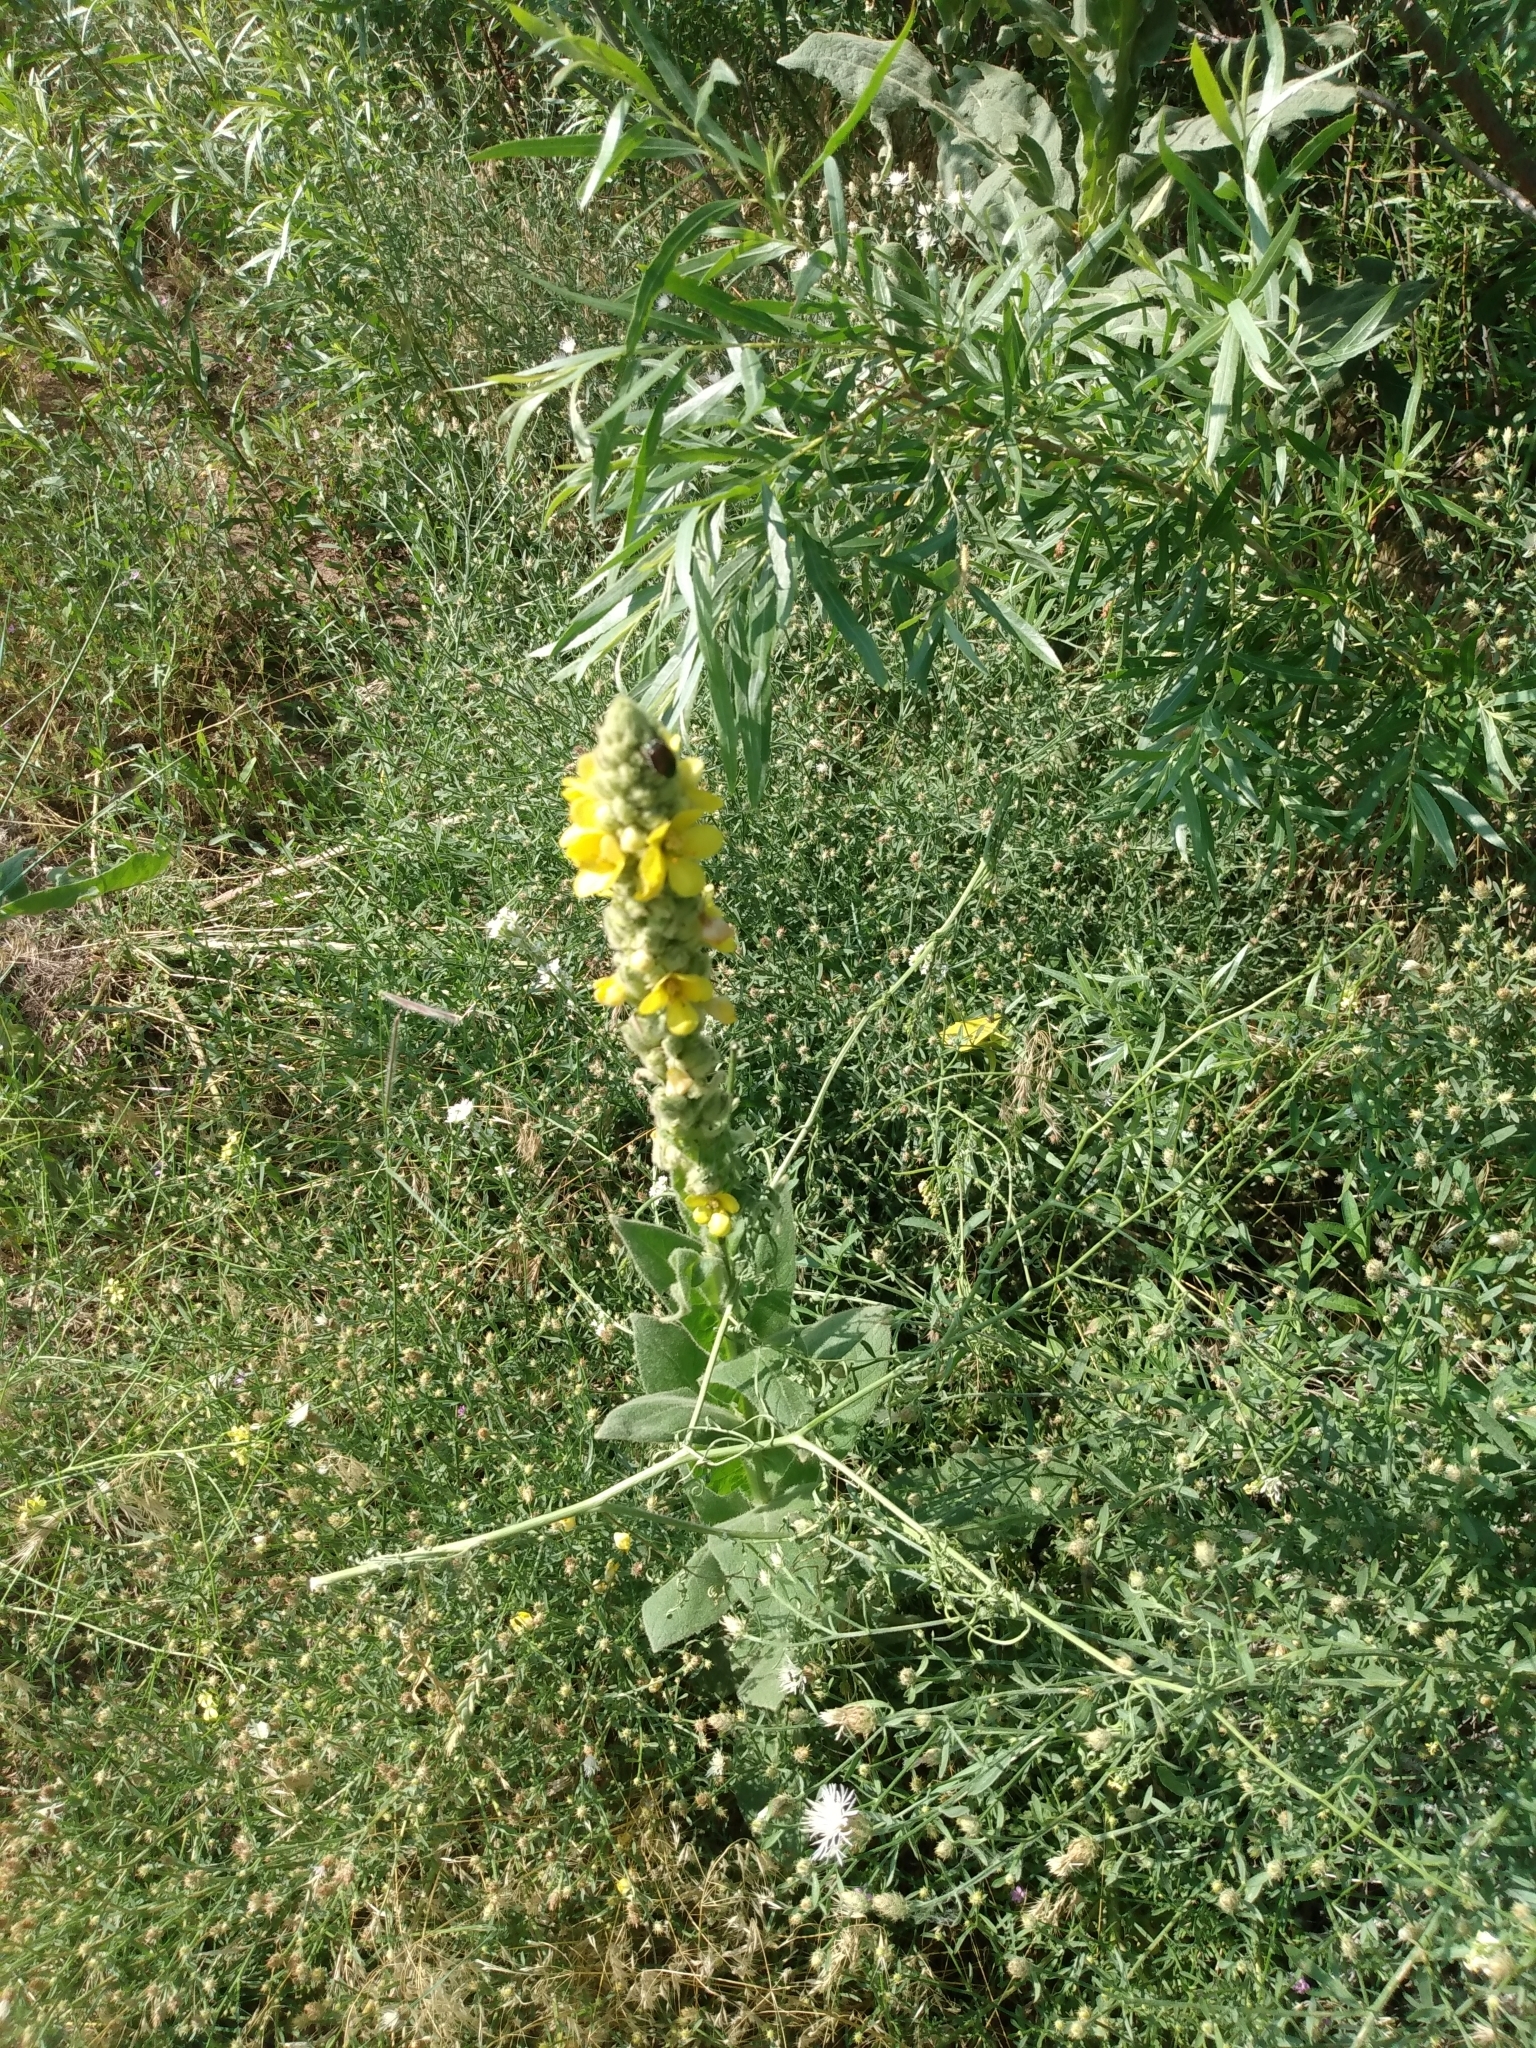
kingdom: Plantae
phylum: Tracheophyta
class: Magnoliopsida
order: Lamiales
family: Scrophulariaceae
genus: Verbascum
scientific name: Verbascum thapsus
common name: Common mullein
